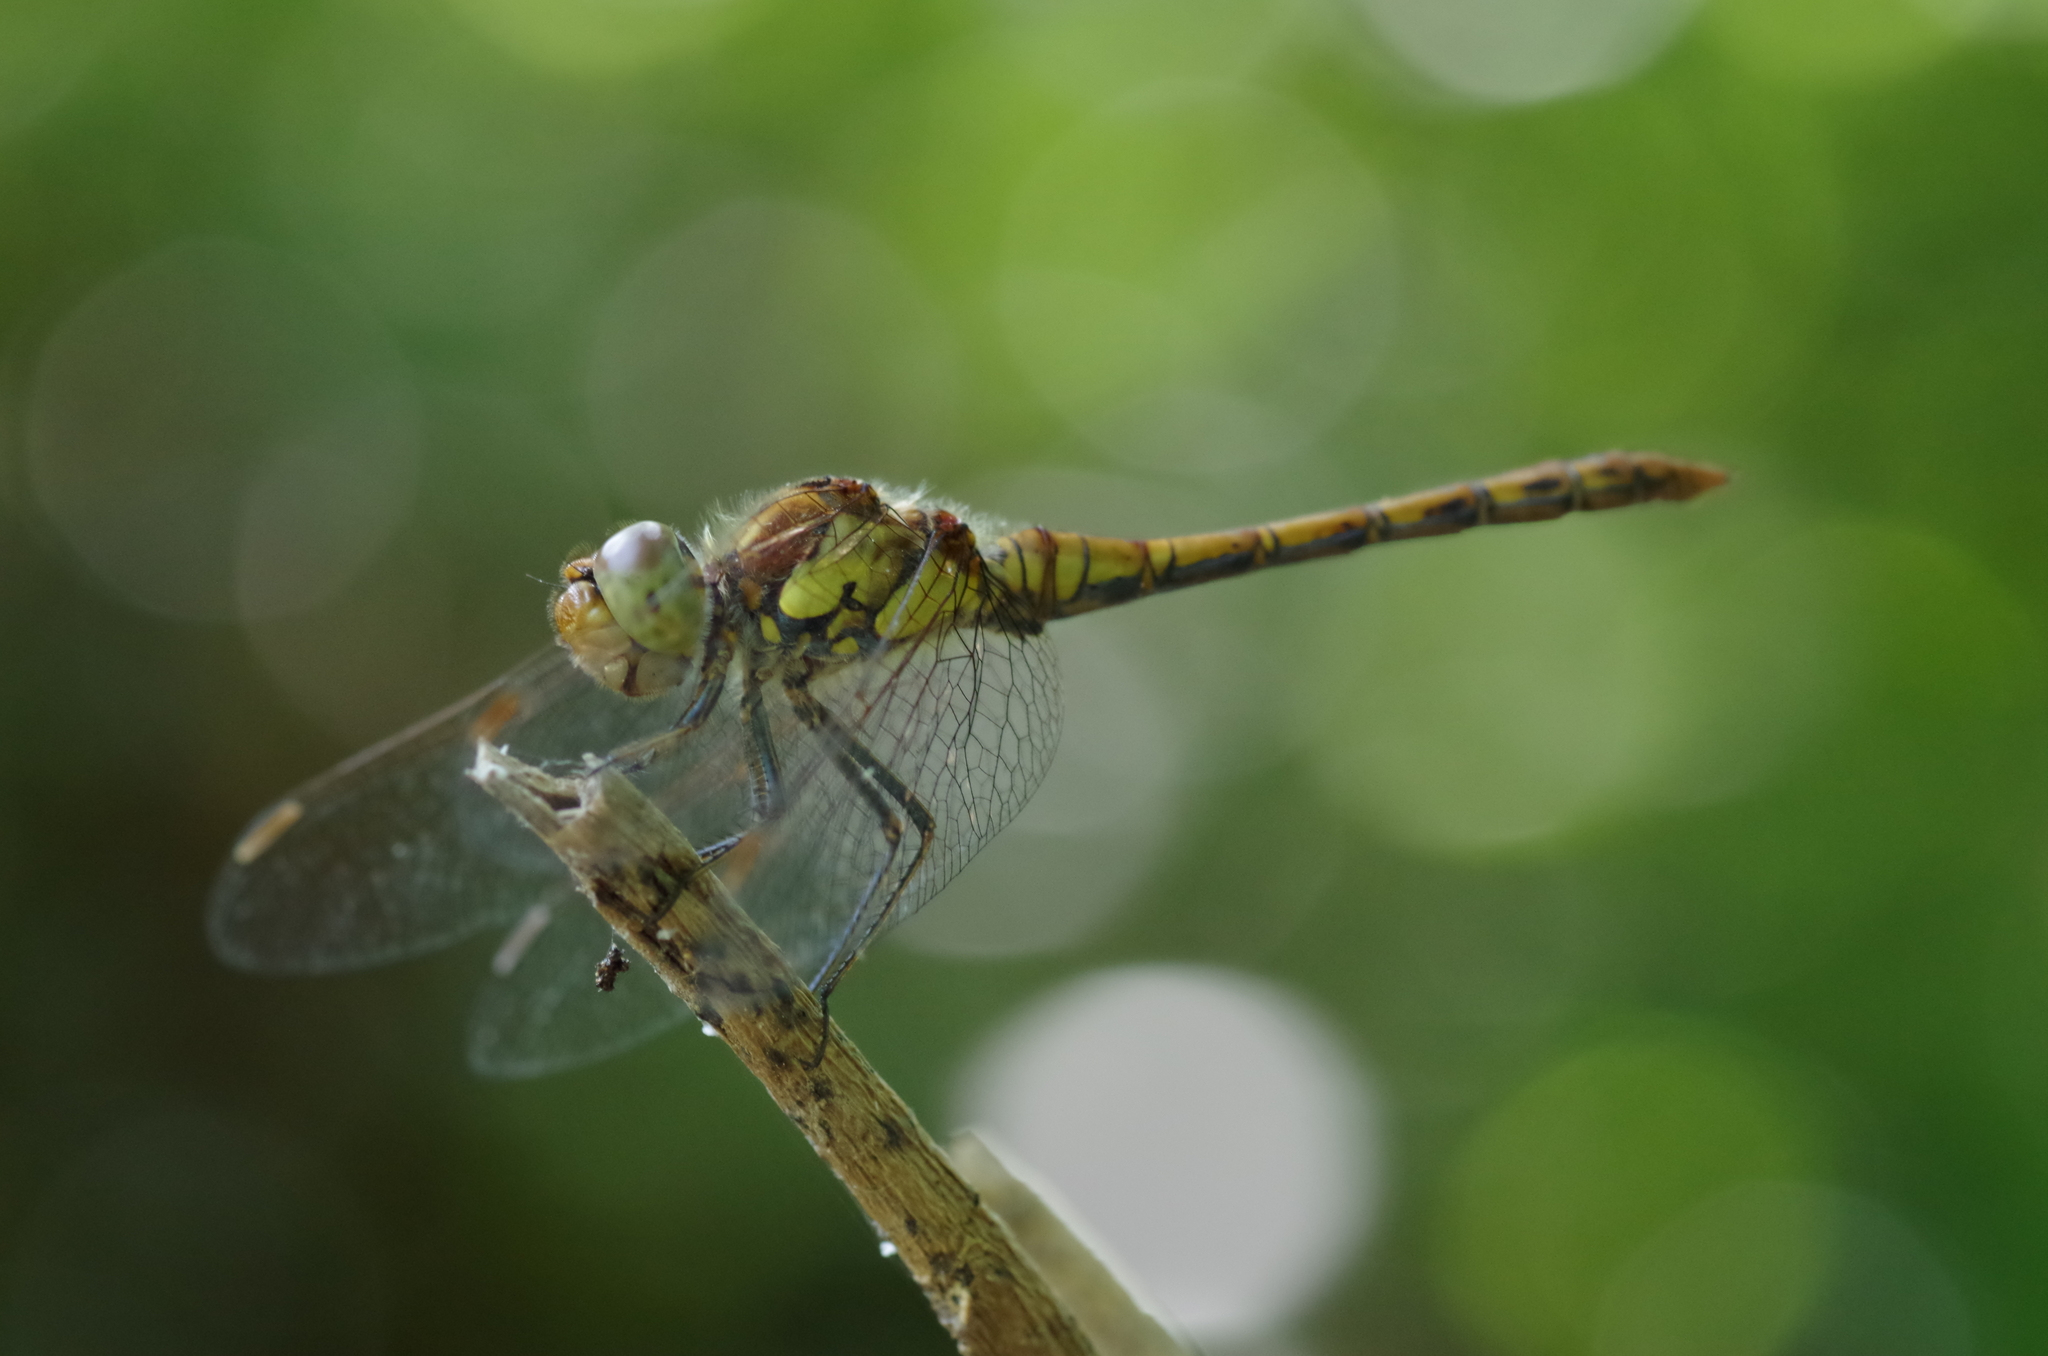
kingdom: Animalia
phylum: Arthropoda
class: Insecta
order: Odonata
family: Libellulidae
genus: Sympetrum
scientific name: Sympetrum striolatum
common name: Common darter
